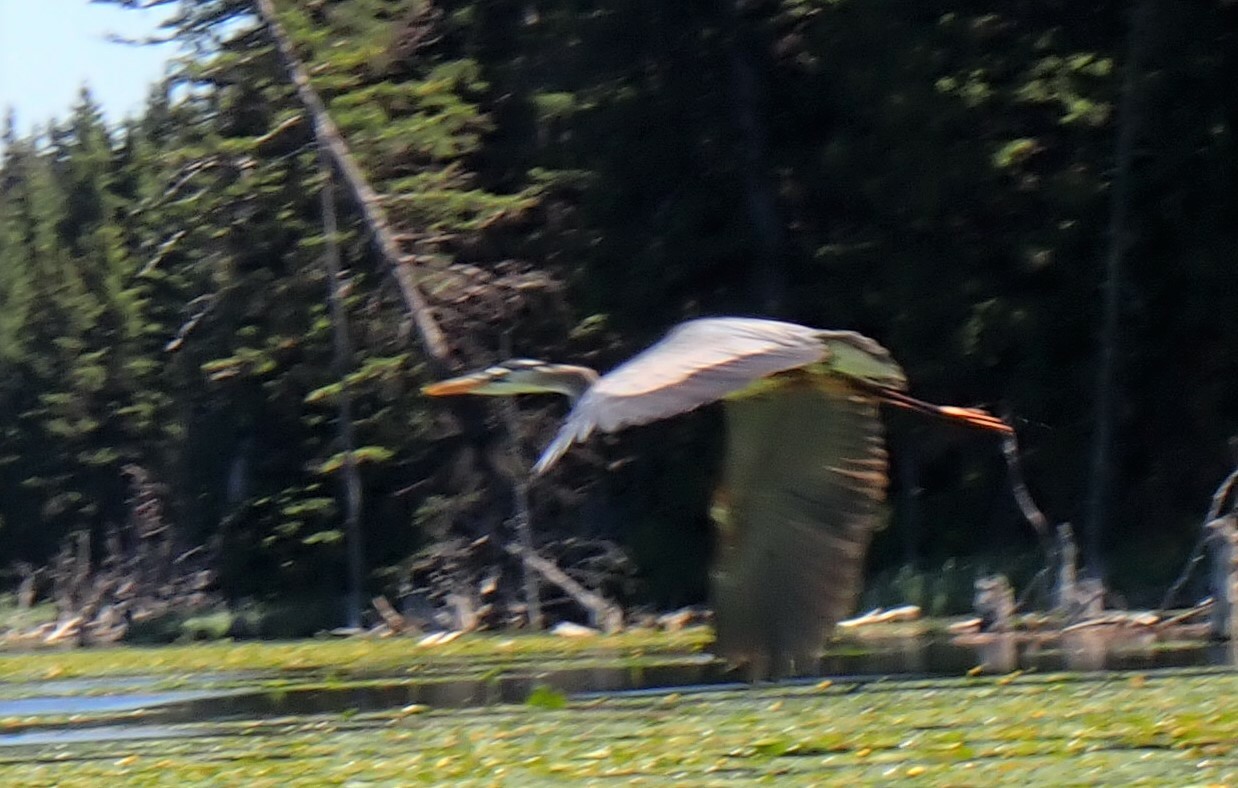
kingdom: Animalia
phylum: Chordata
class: Aves
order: Pelecaniformes
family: Ardeidae
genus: Ardea
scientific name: Ardea herodias
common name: Great blue heron
